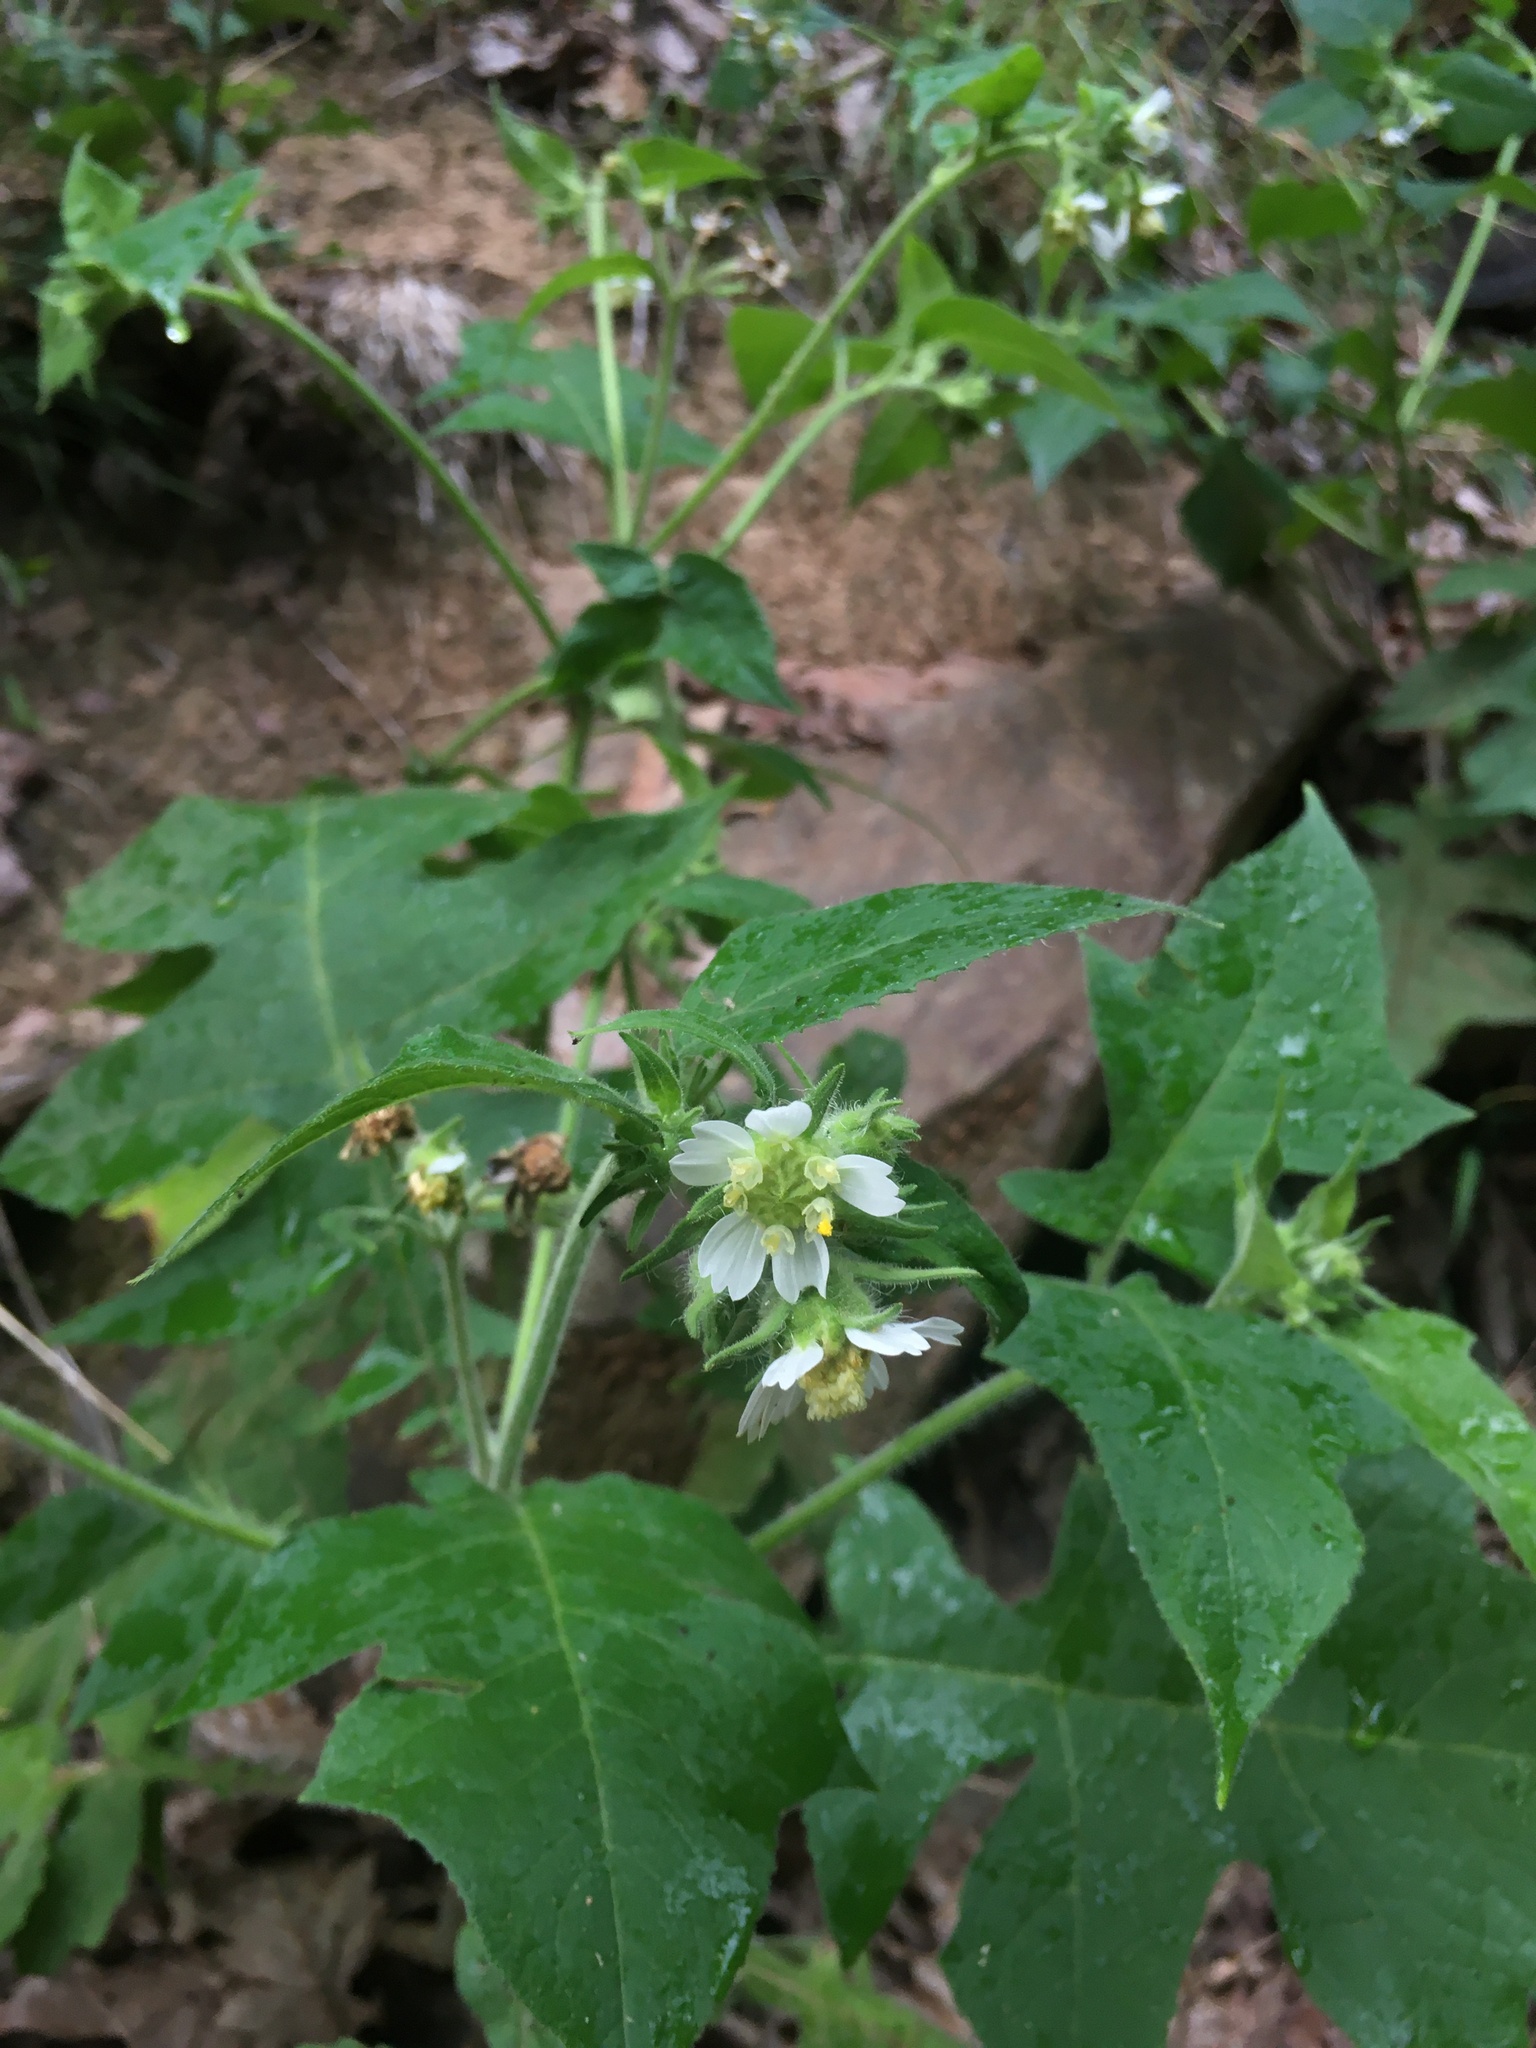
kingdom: Plantae
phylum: Tracheophyta
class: Magnoliopsida
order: Asterales
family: Asteraceae
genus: Polymnia
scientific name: Polymnia canadensis
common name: Pale-flowered leafcup
